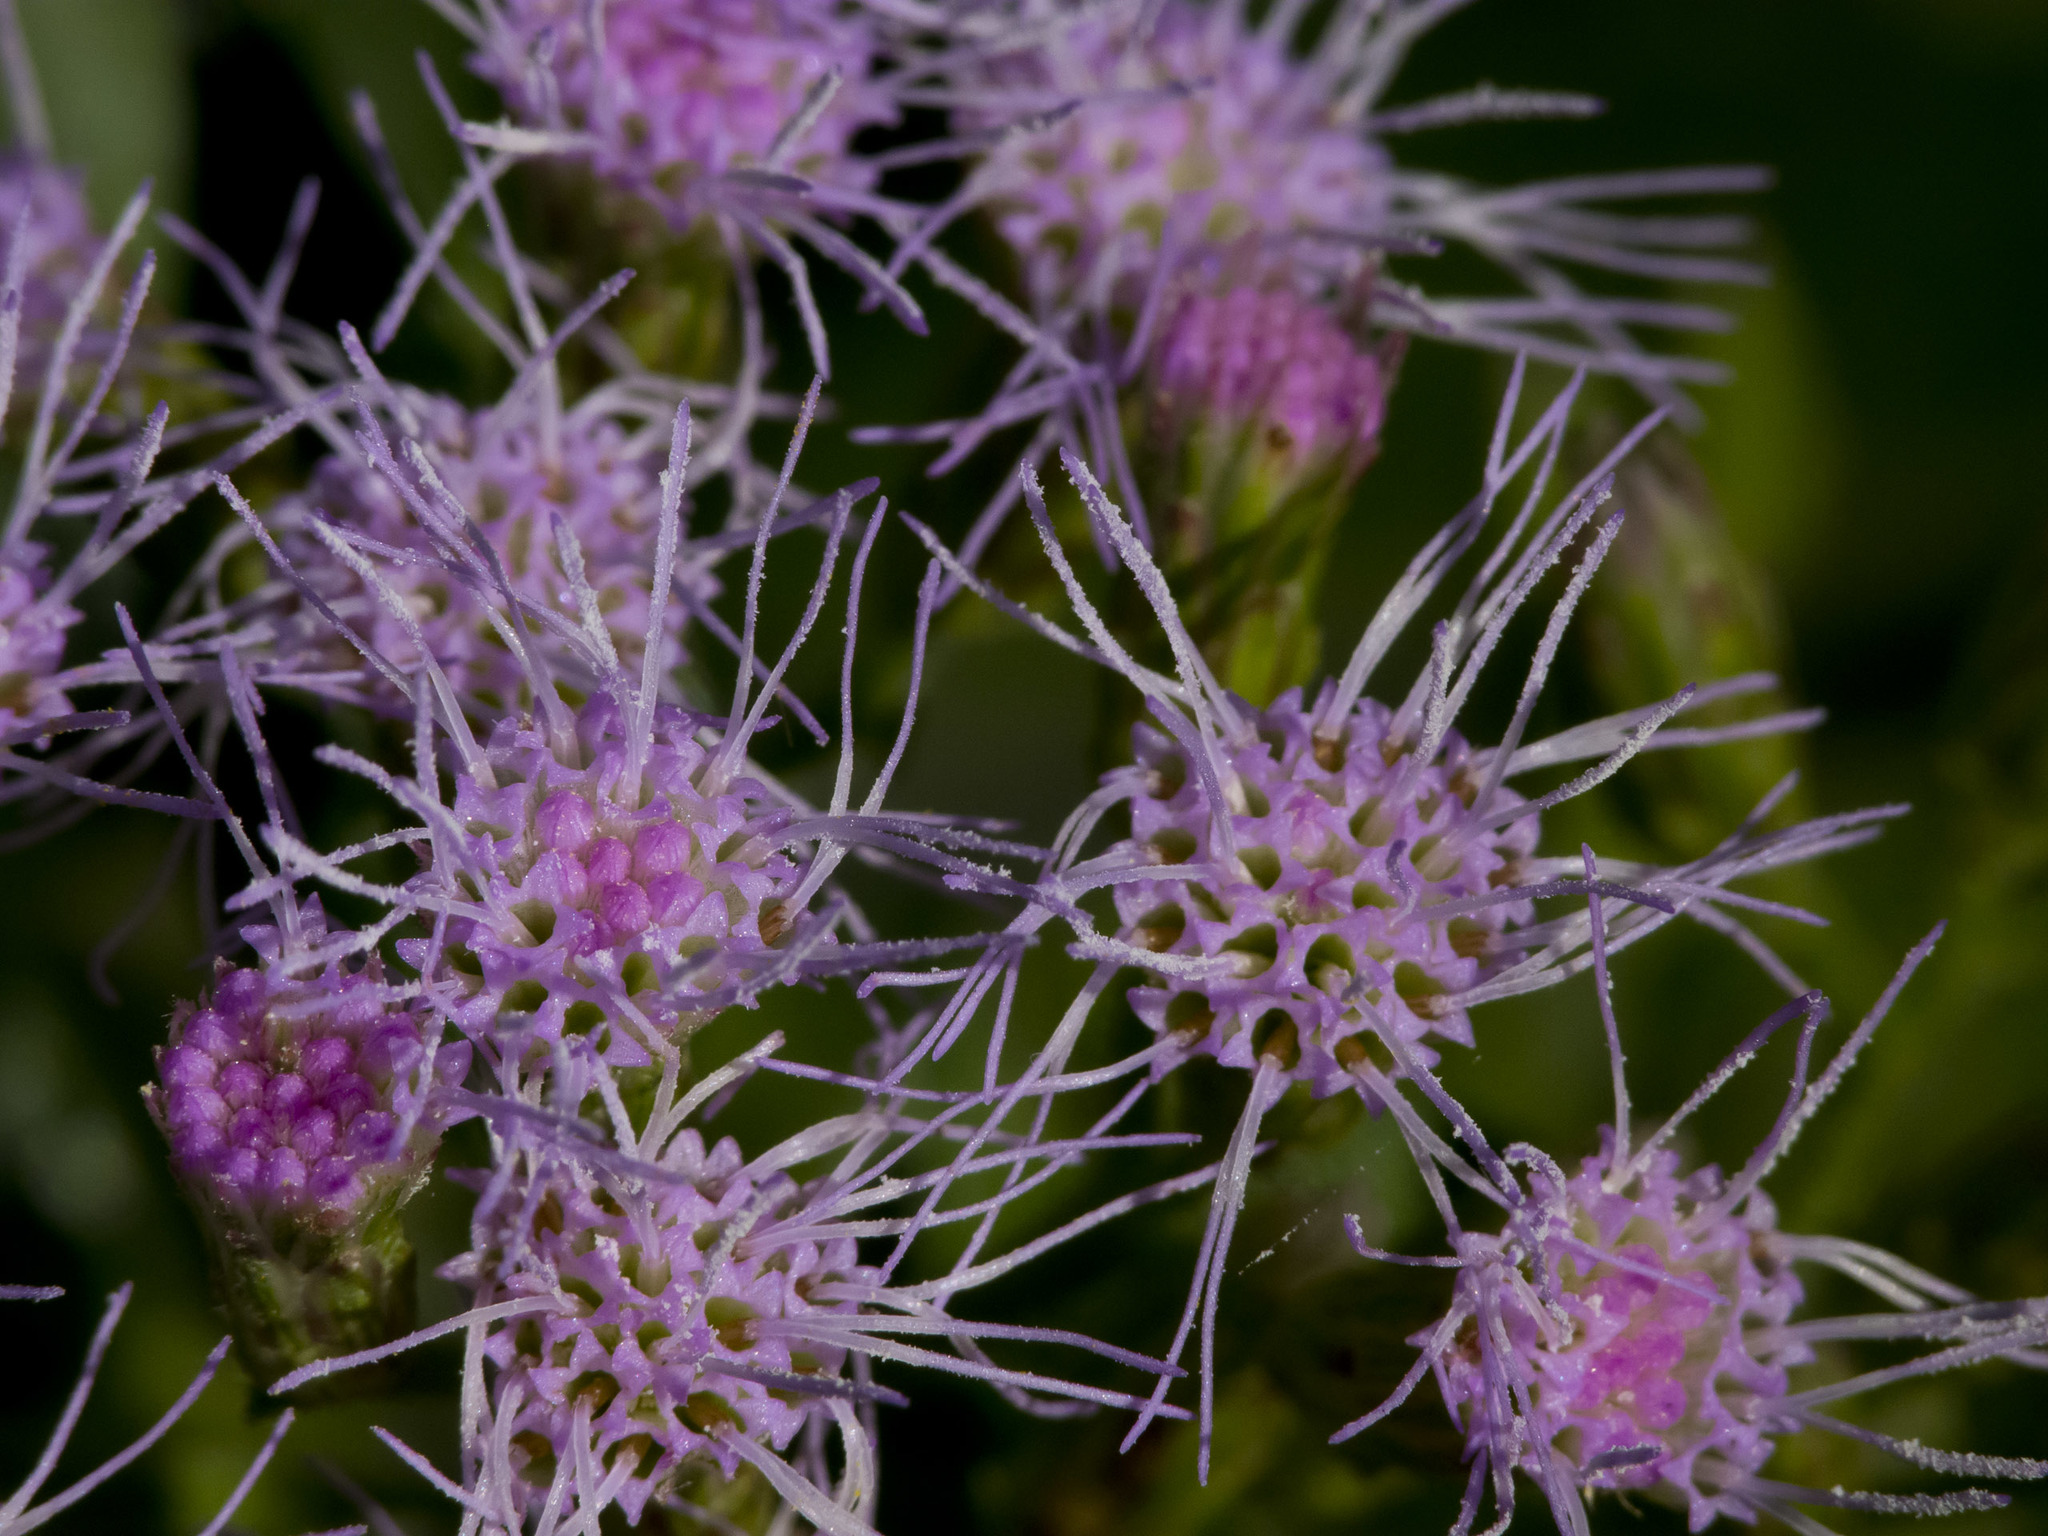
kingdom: Plantae
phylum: Tracheophyta
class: Magnoliopsida
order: Asterales
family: Asteraceae
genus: Chromolaena
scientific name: Chromolaena odorata
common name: Siamweed
